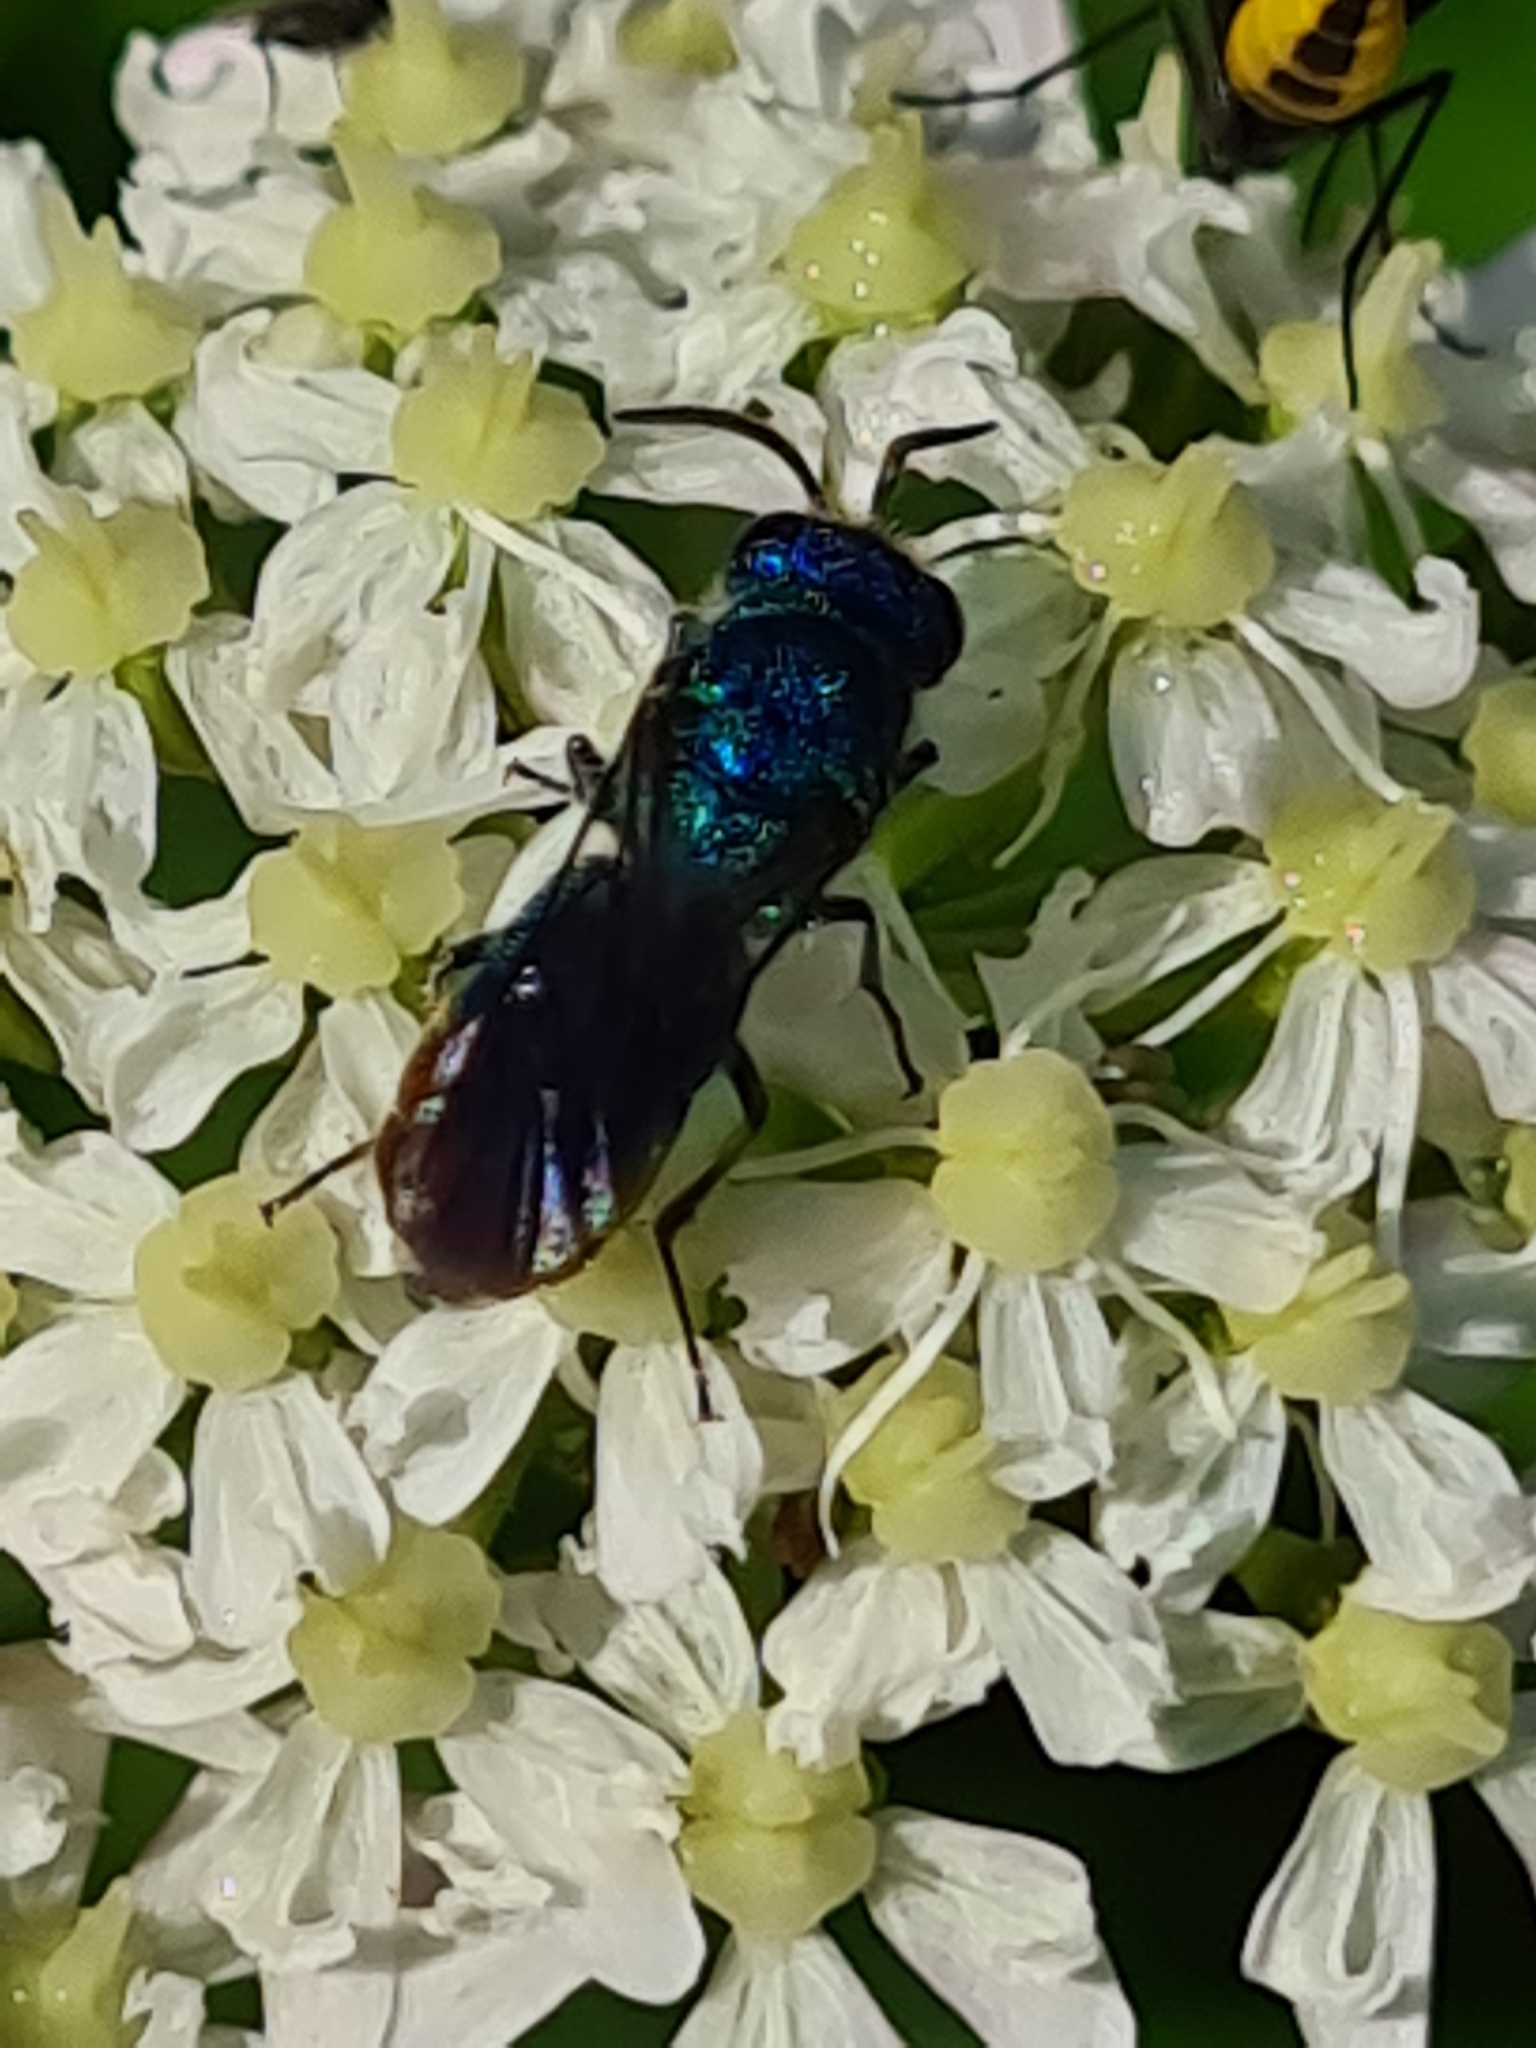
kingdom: Animalia
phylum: Arthropoda
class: Insecta
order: Hymenoptera
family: Chrysididae
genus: Chrysis
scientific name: Chrysis fulgida
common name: Shimmering ruby-tail
